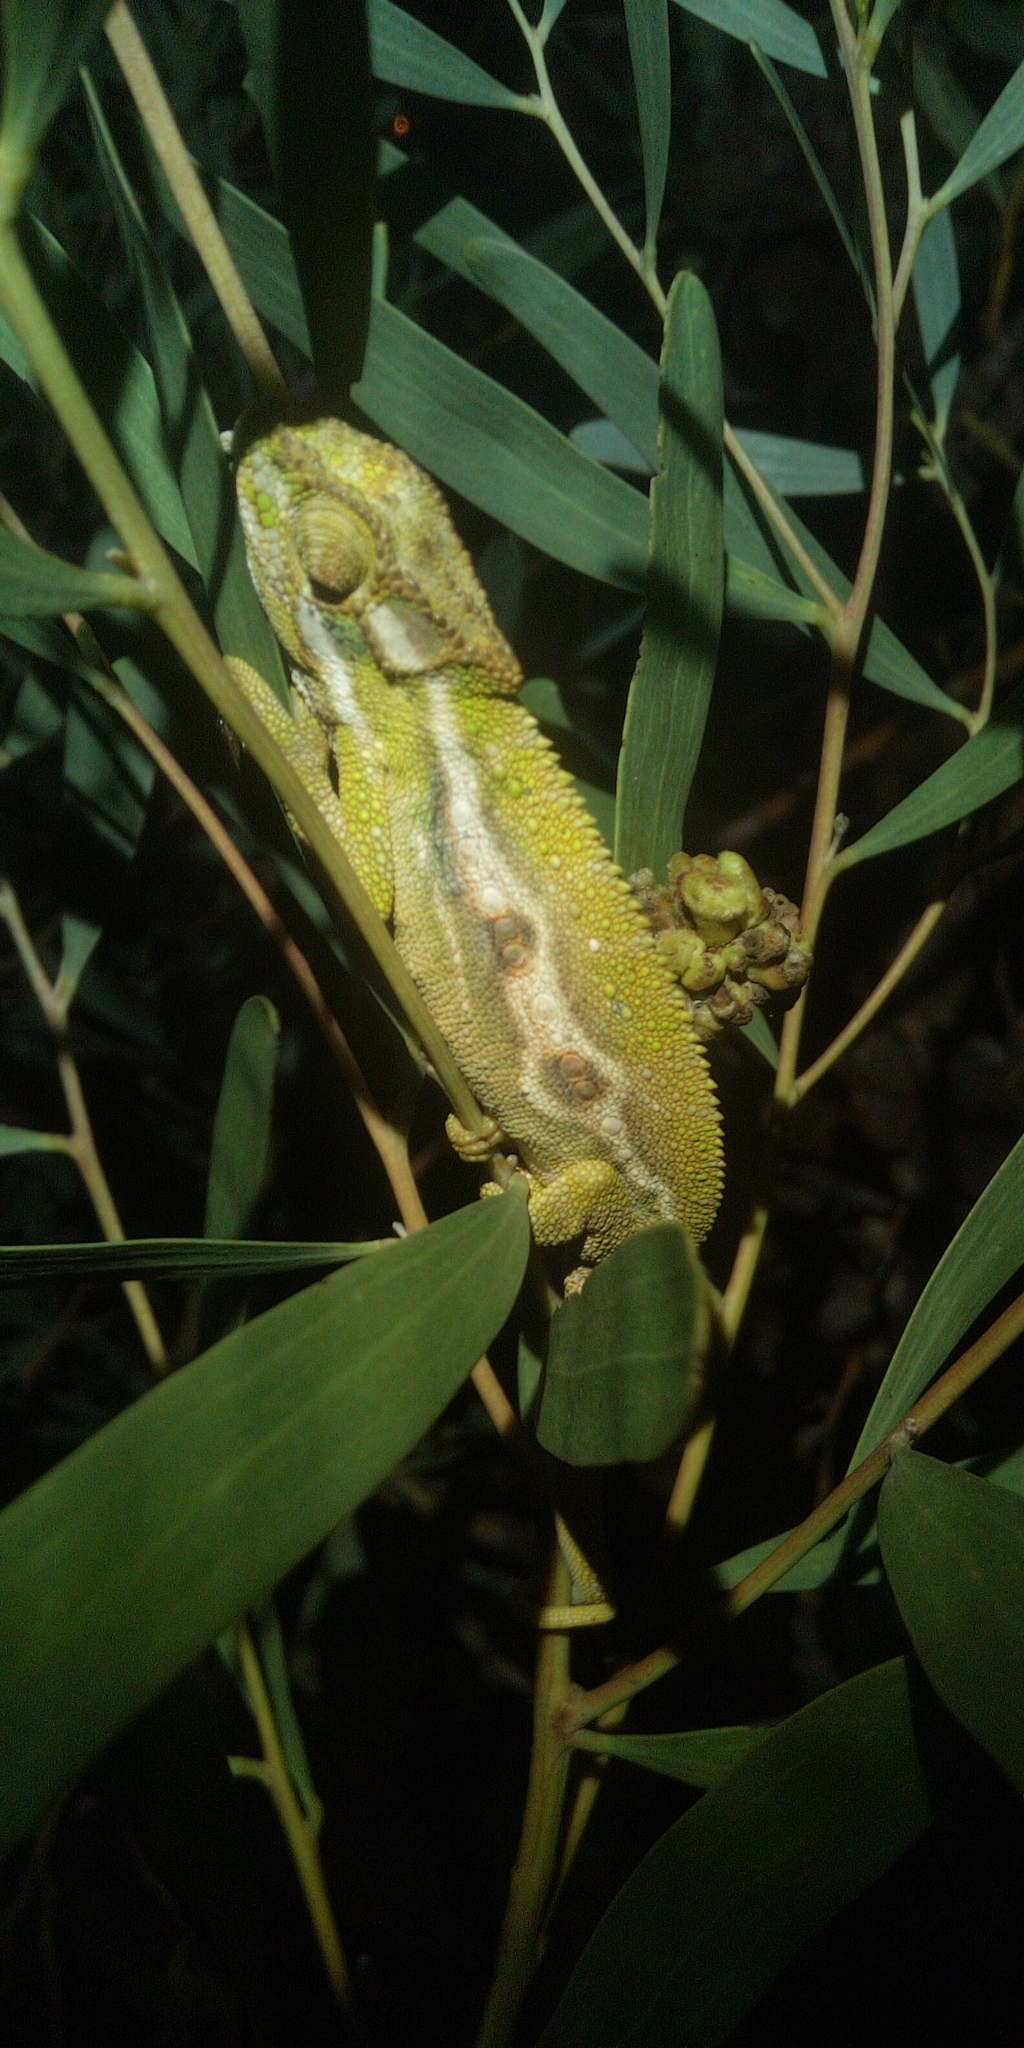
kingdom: Animalia
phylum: Chordata
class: Squamata
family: Chamaeleonidae
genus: Bradypodion
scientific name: Bradypodion pumilum
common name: Cape dwarf chameleon
